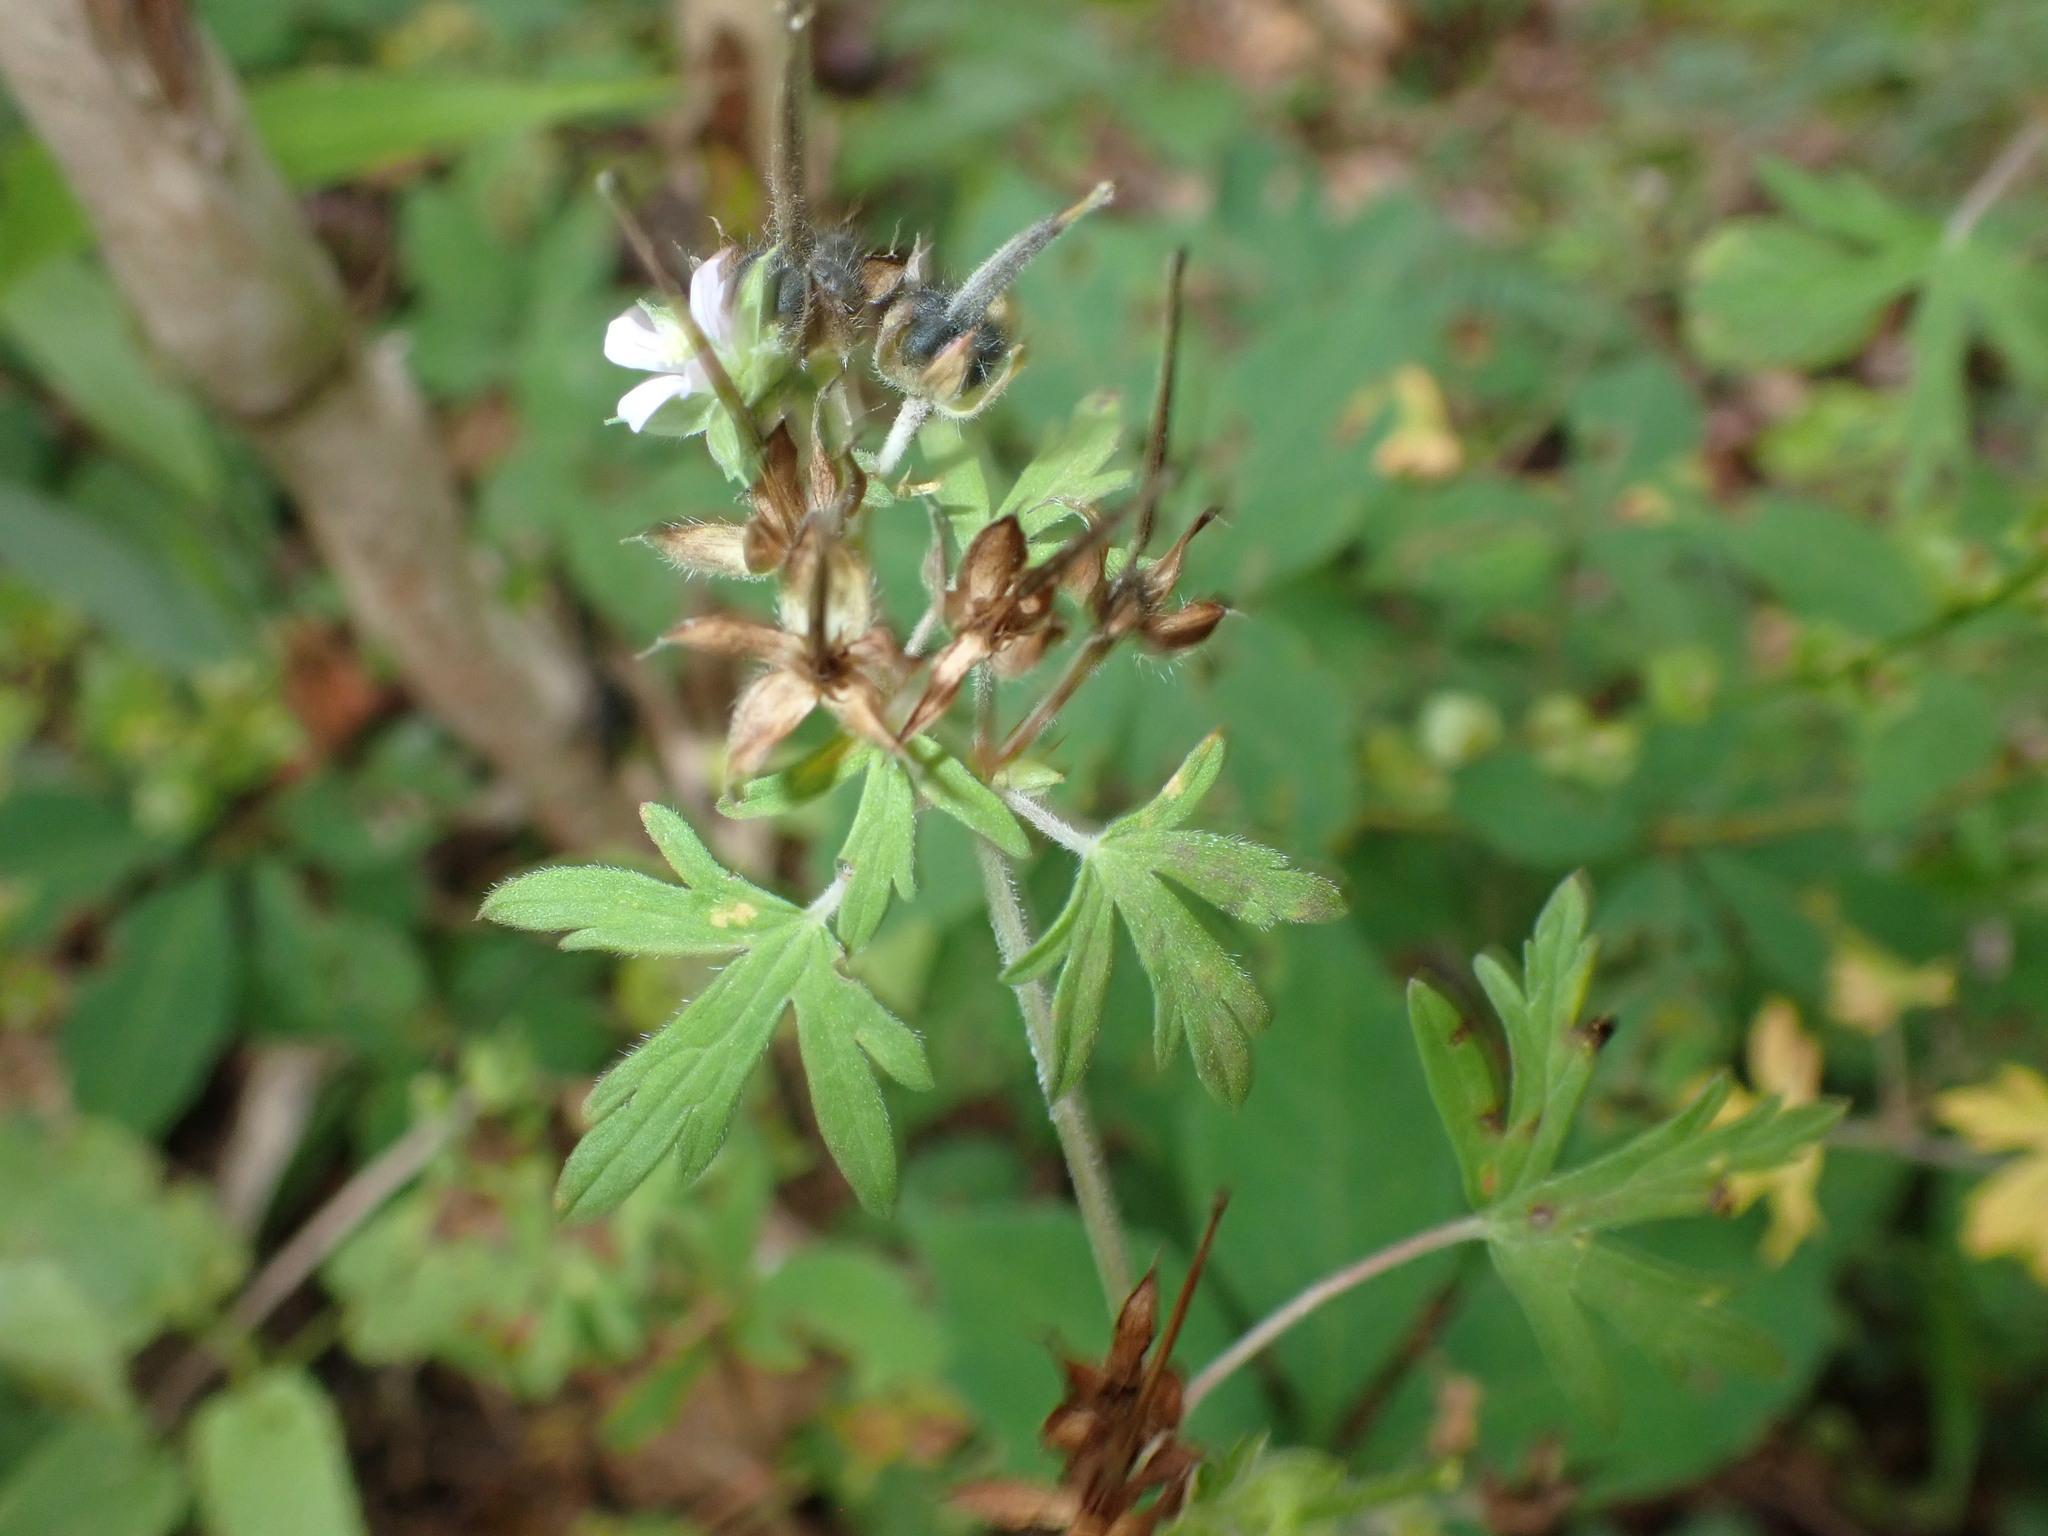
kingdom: Plantae
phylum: Tracheophyta
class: Magnoliopsida
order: Geraniales
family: Geraniaceae
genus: Geranium
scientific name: Geranium carolinianum
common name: Carolina crane's-bill
